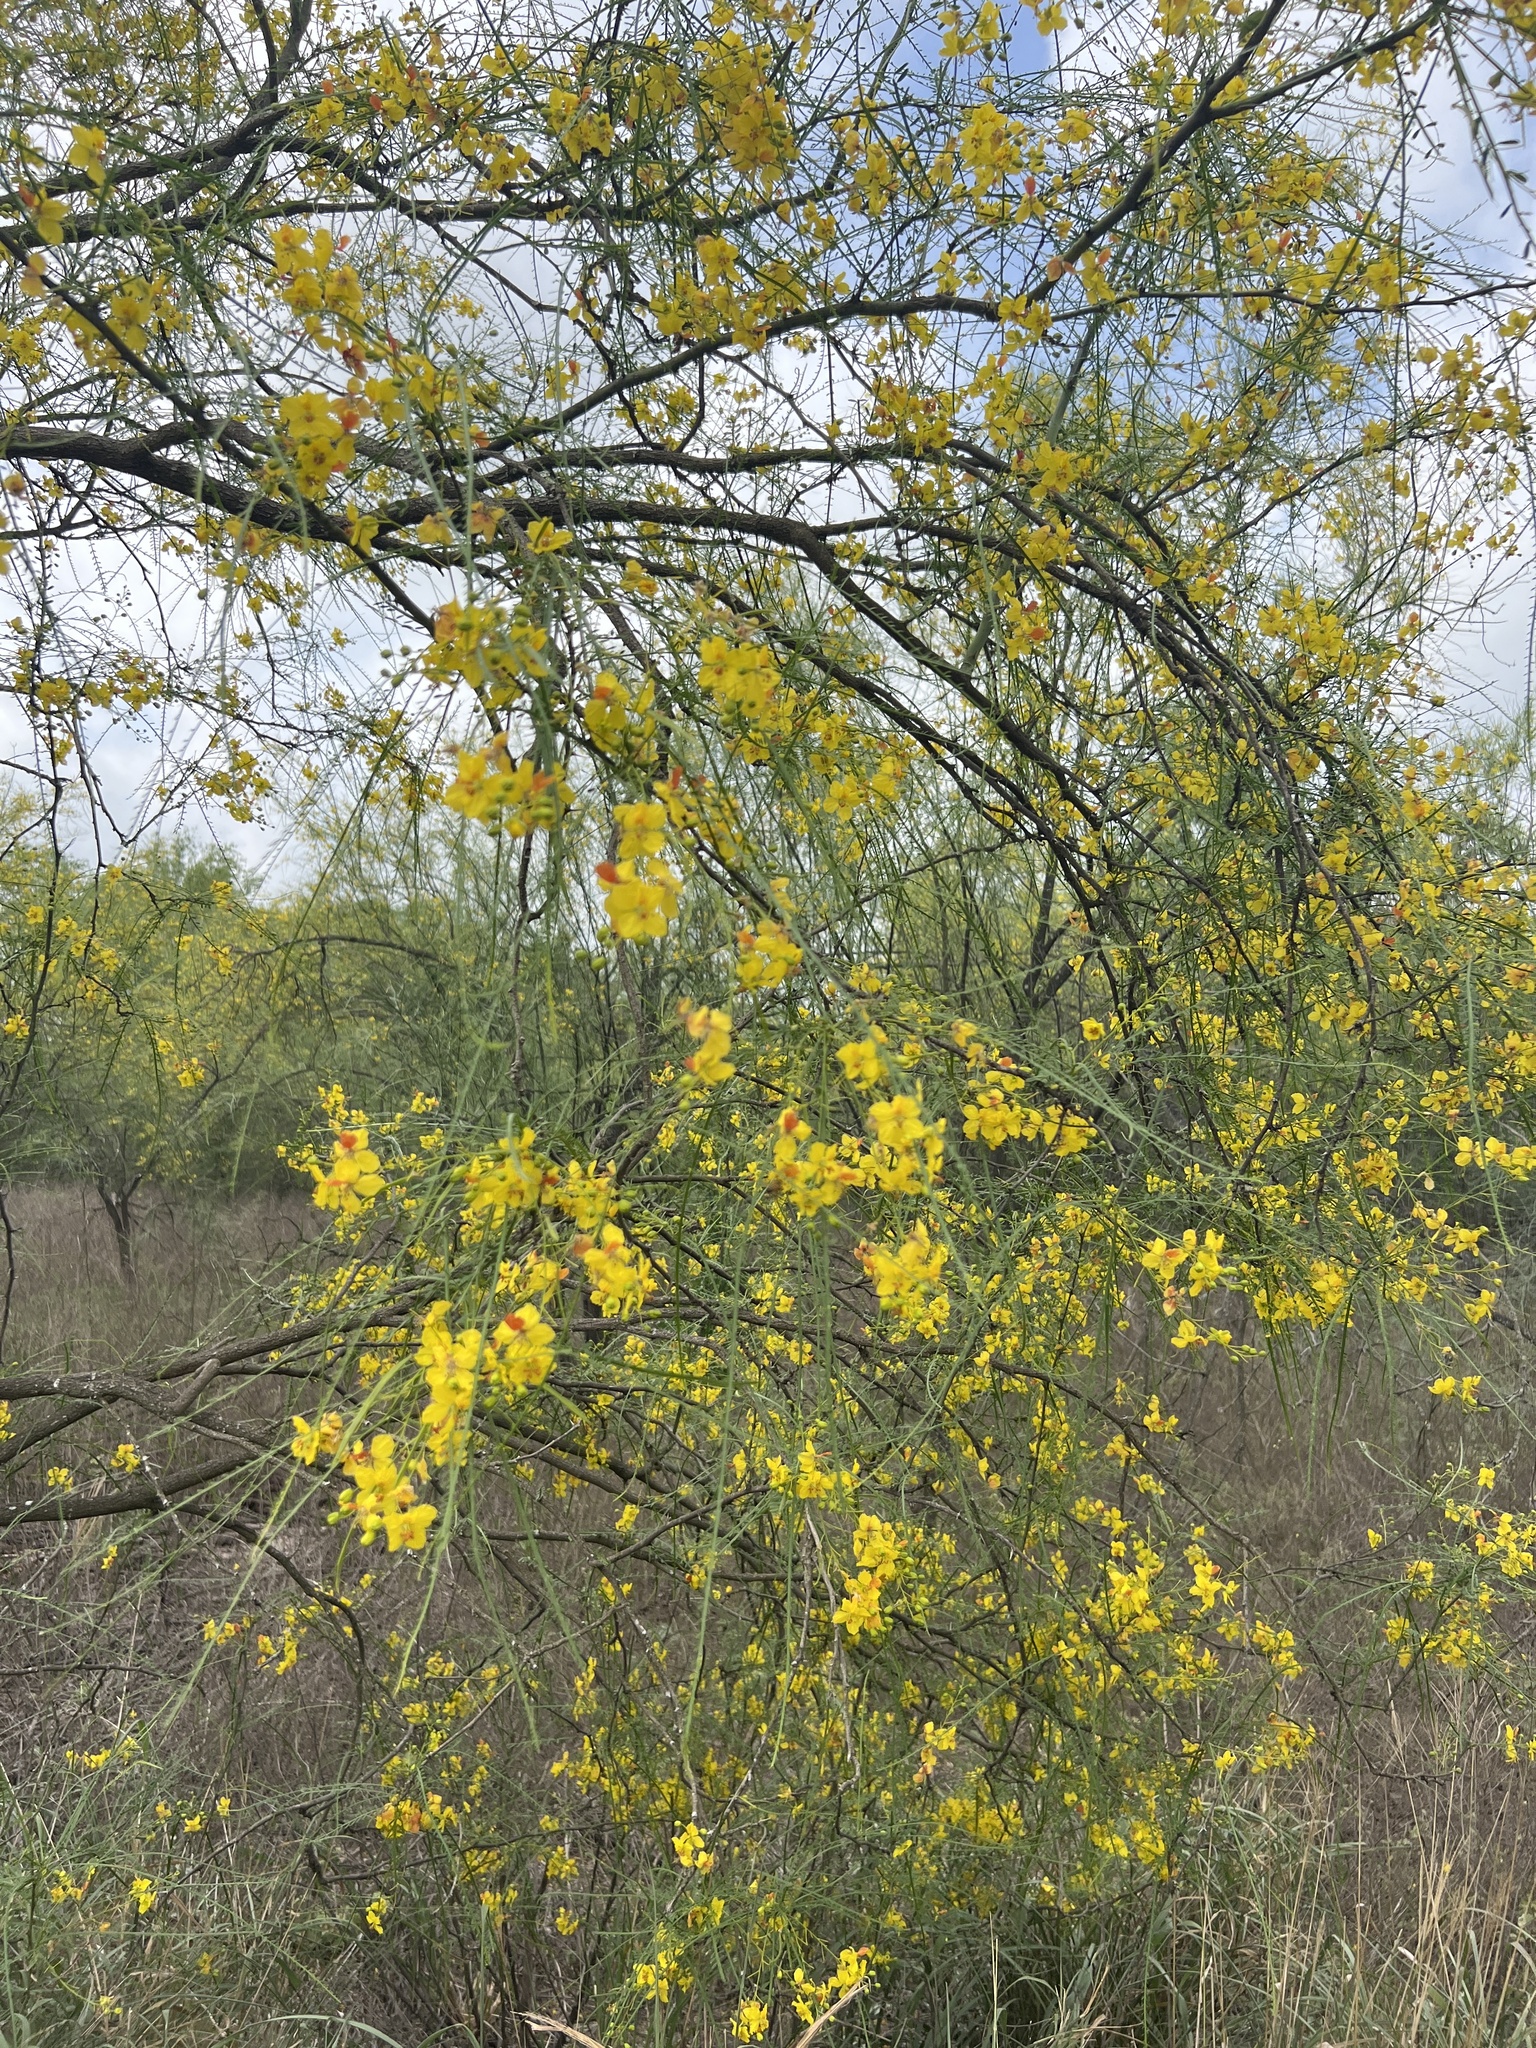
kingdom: Plantae
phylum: Tracheophyta
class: Magnoliopsida
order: Fabales
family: Fabaceae
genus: Parkinsonia
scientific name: Parkinsonia aculeata
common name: Jerusalem thorn
